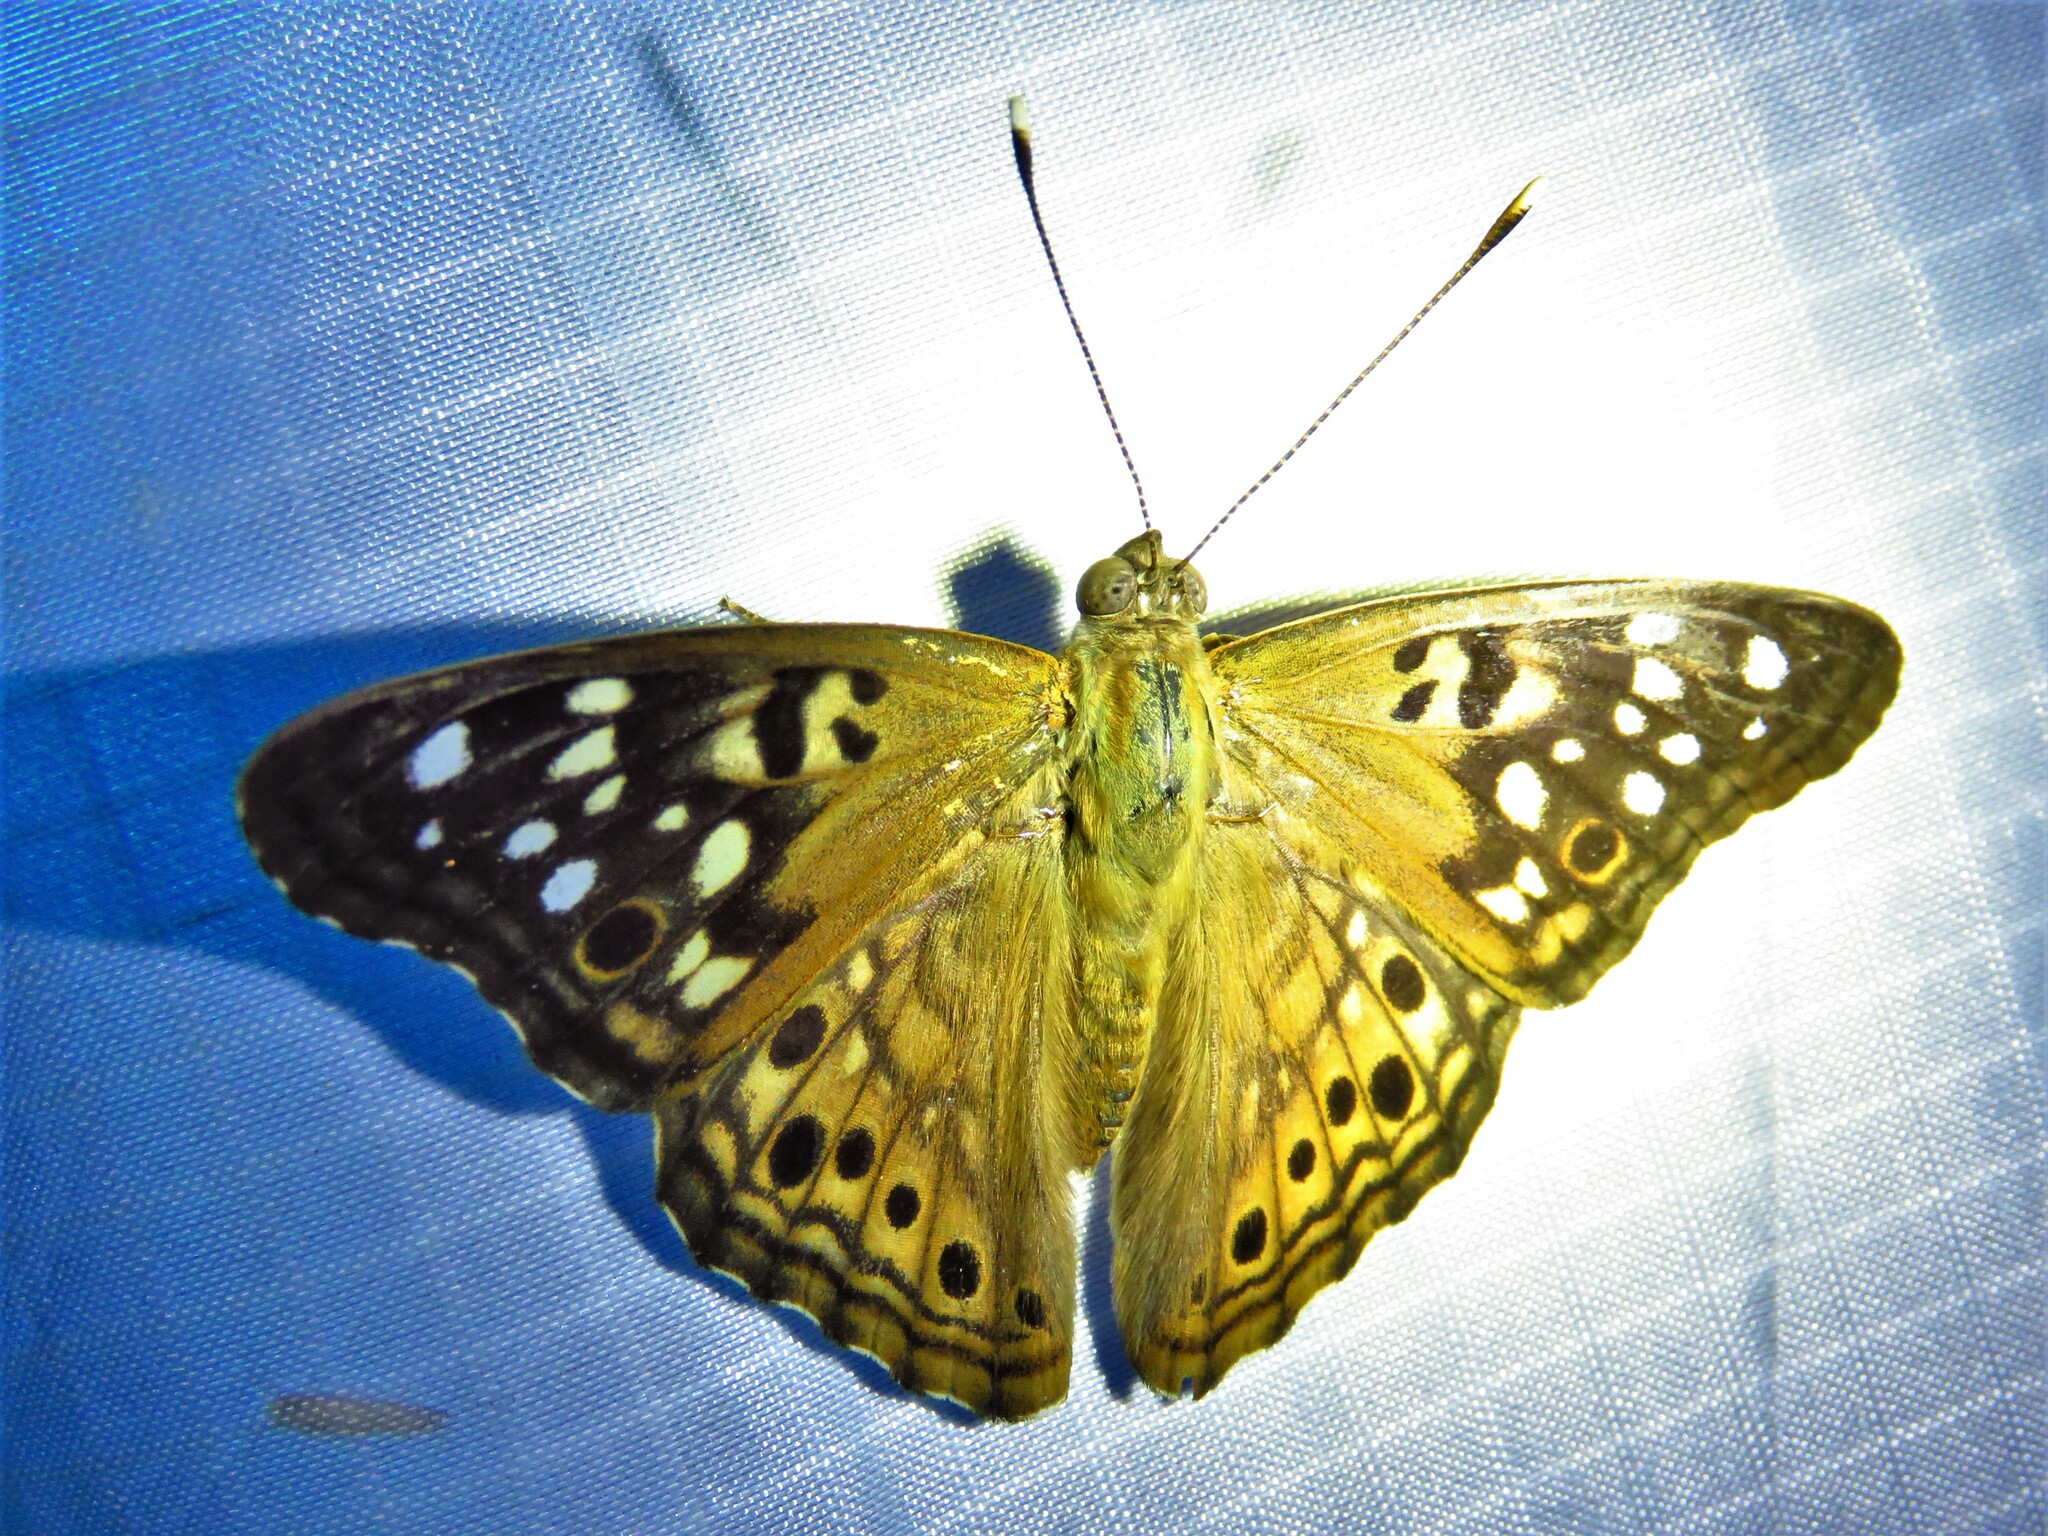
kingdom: Animalia
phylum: Arthropoda
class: Insecta
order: Lepidoptera
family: Nymphalidae
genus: Asterocampa
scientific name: Asterocampa celtis
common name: Hackberry emperor
